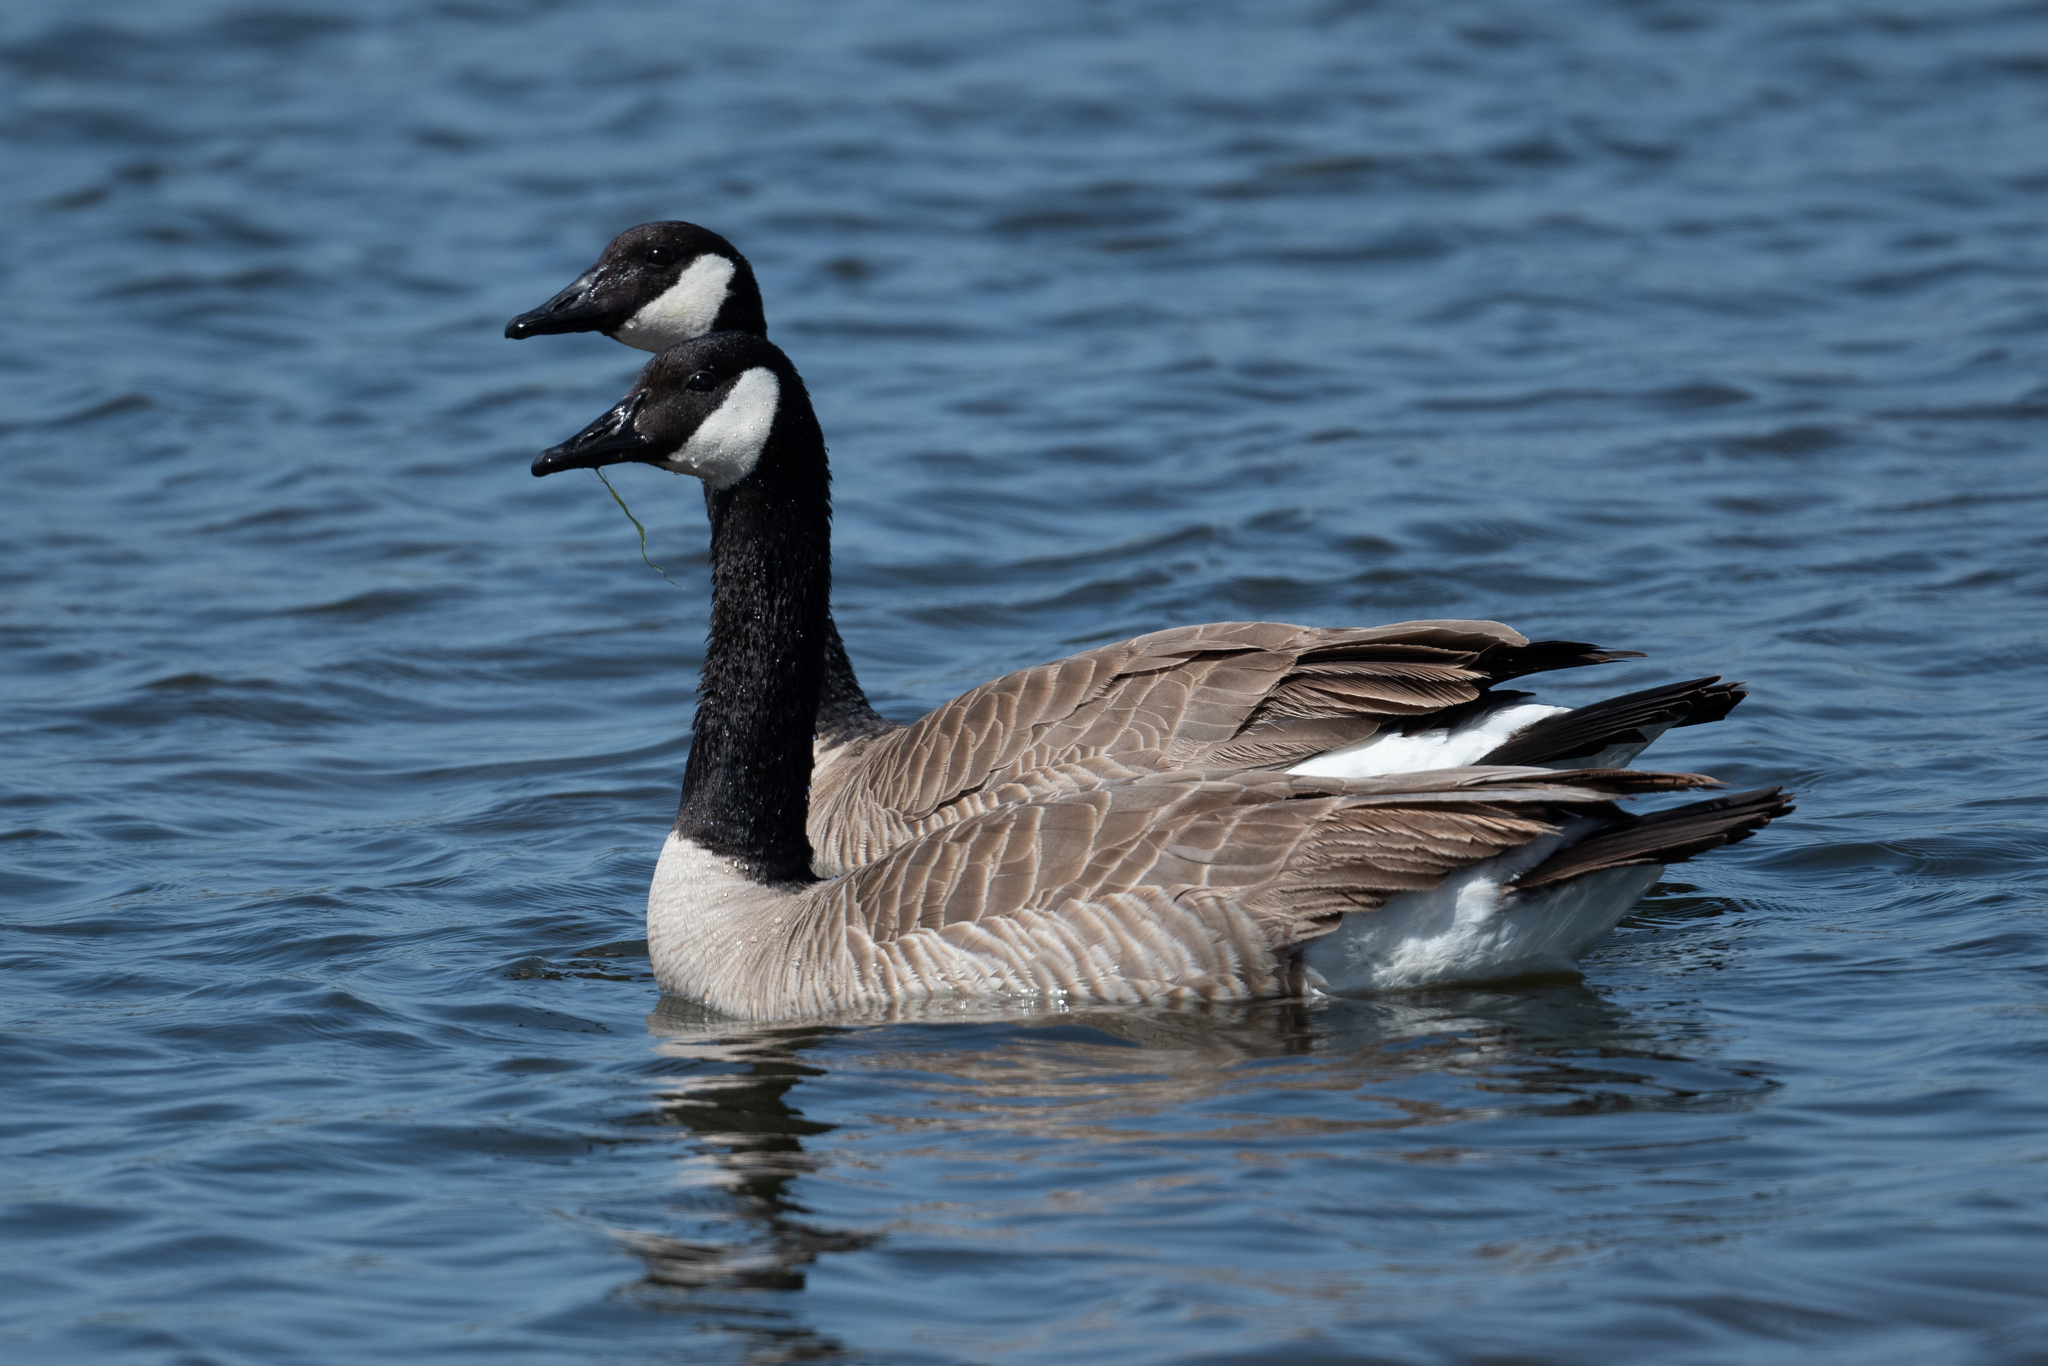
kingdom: Animalia
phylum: Chordata
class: Aves
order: Anseriformes
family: Anatidae
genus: Branta
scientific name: Branta canadensis
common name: Canada goose
